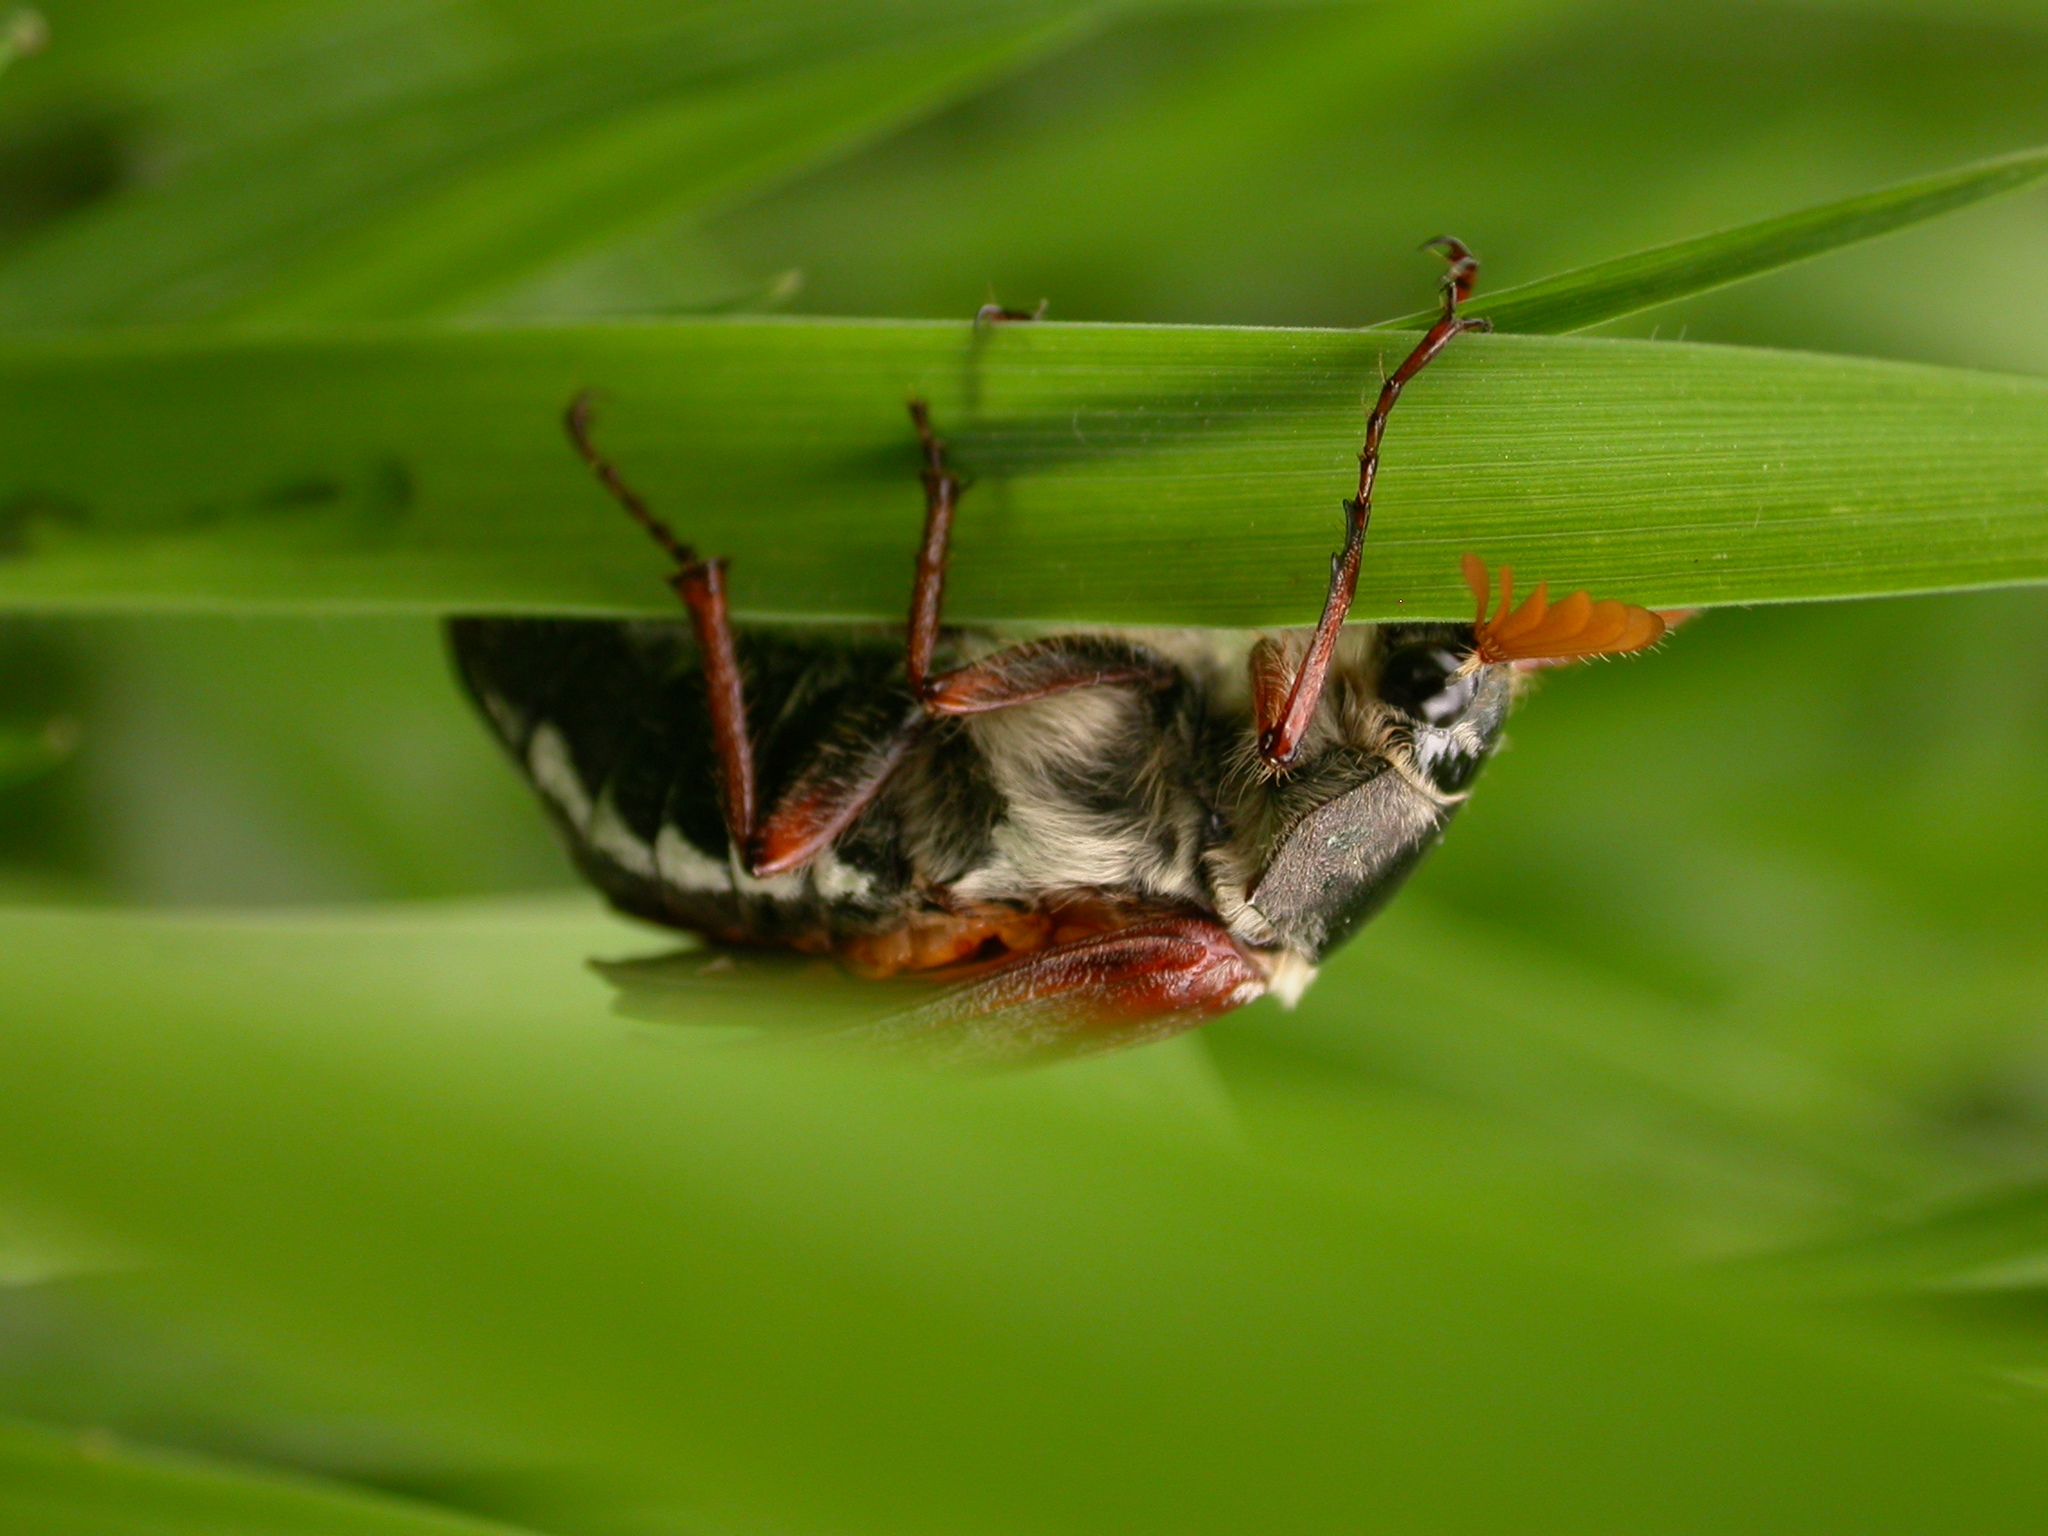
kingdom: Animalia
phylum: Arthropoda
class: Insecta
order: Coleoptera
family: Scarabaeidae
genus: Melolontha
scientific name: Melolontha melolontha
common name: Cockchafer maybeetle
